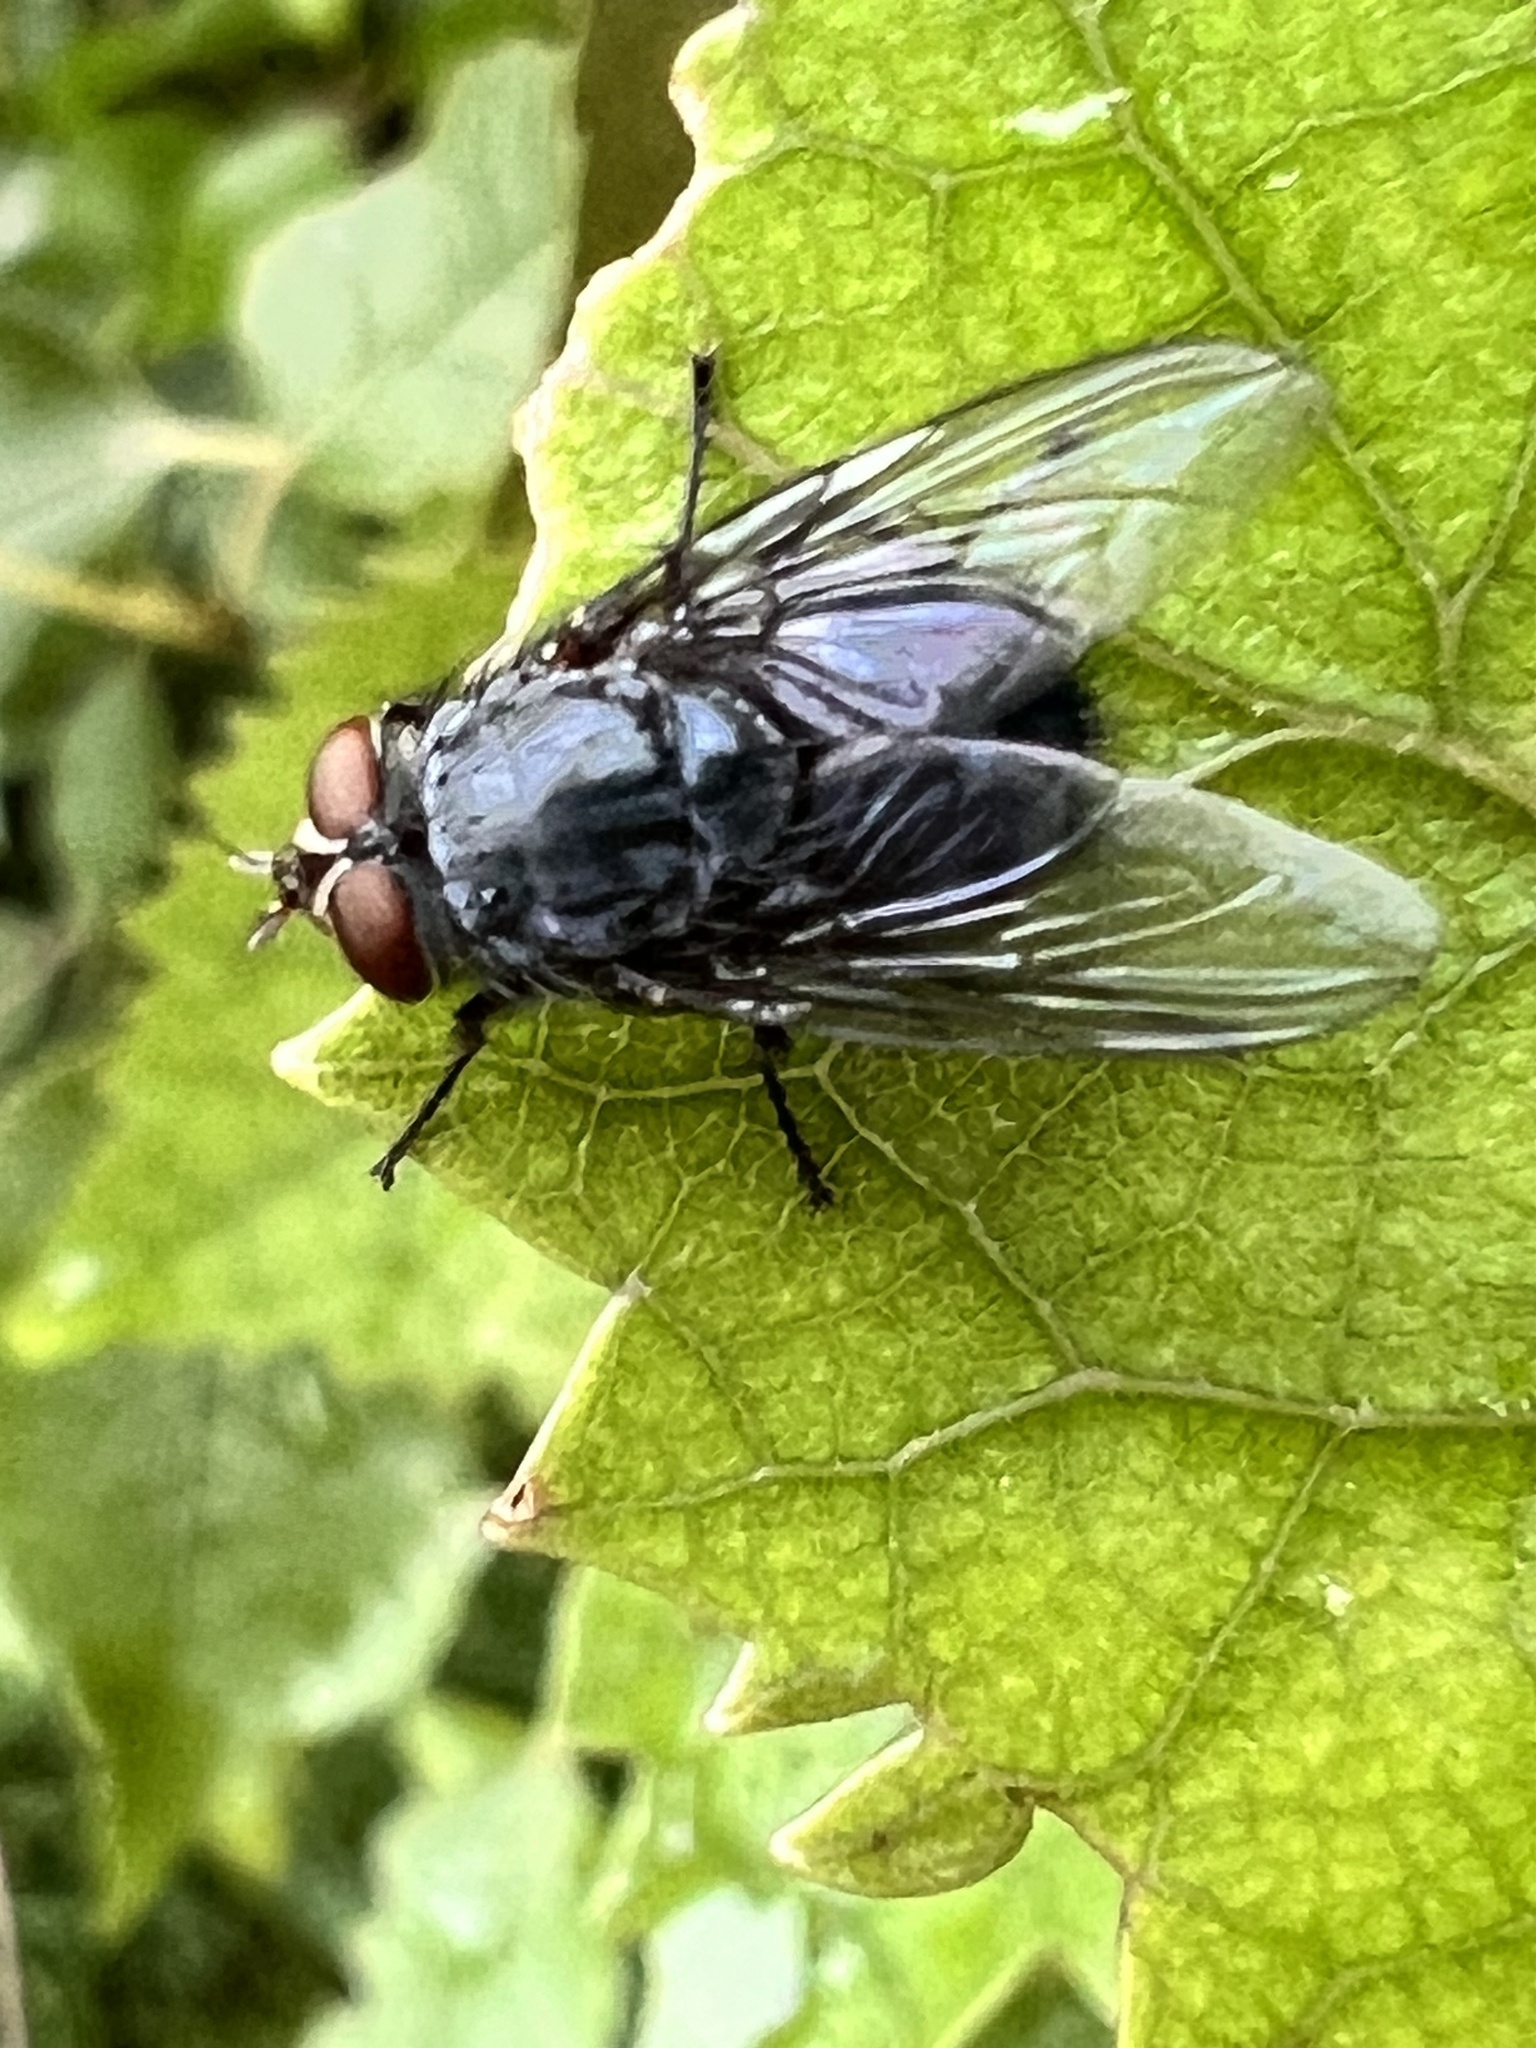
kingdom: Animalia
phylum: Arthropoda
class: Insecta
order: Diptera
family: Calliphoridae
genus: Calliphora
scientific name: Calliphora vicina
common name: Common blow flie
